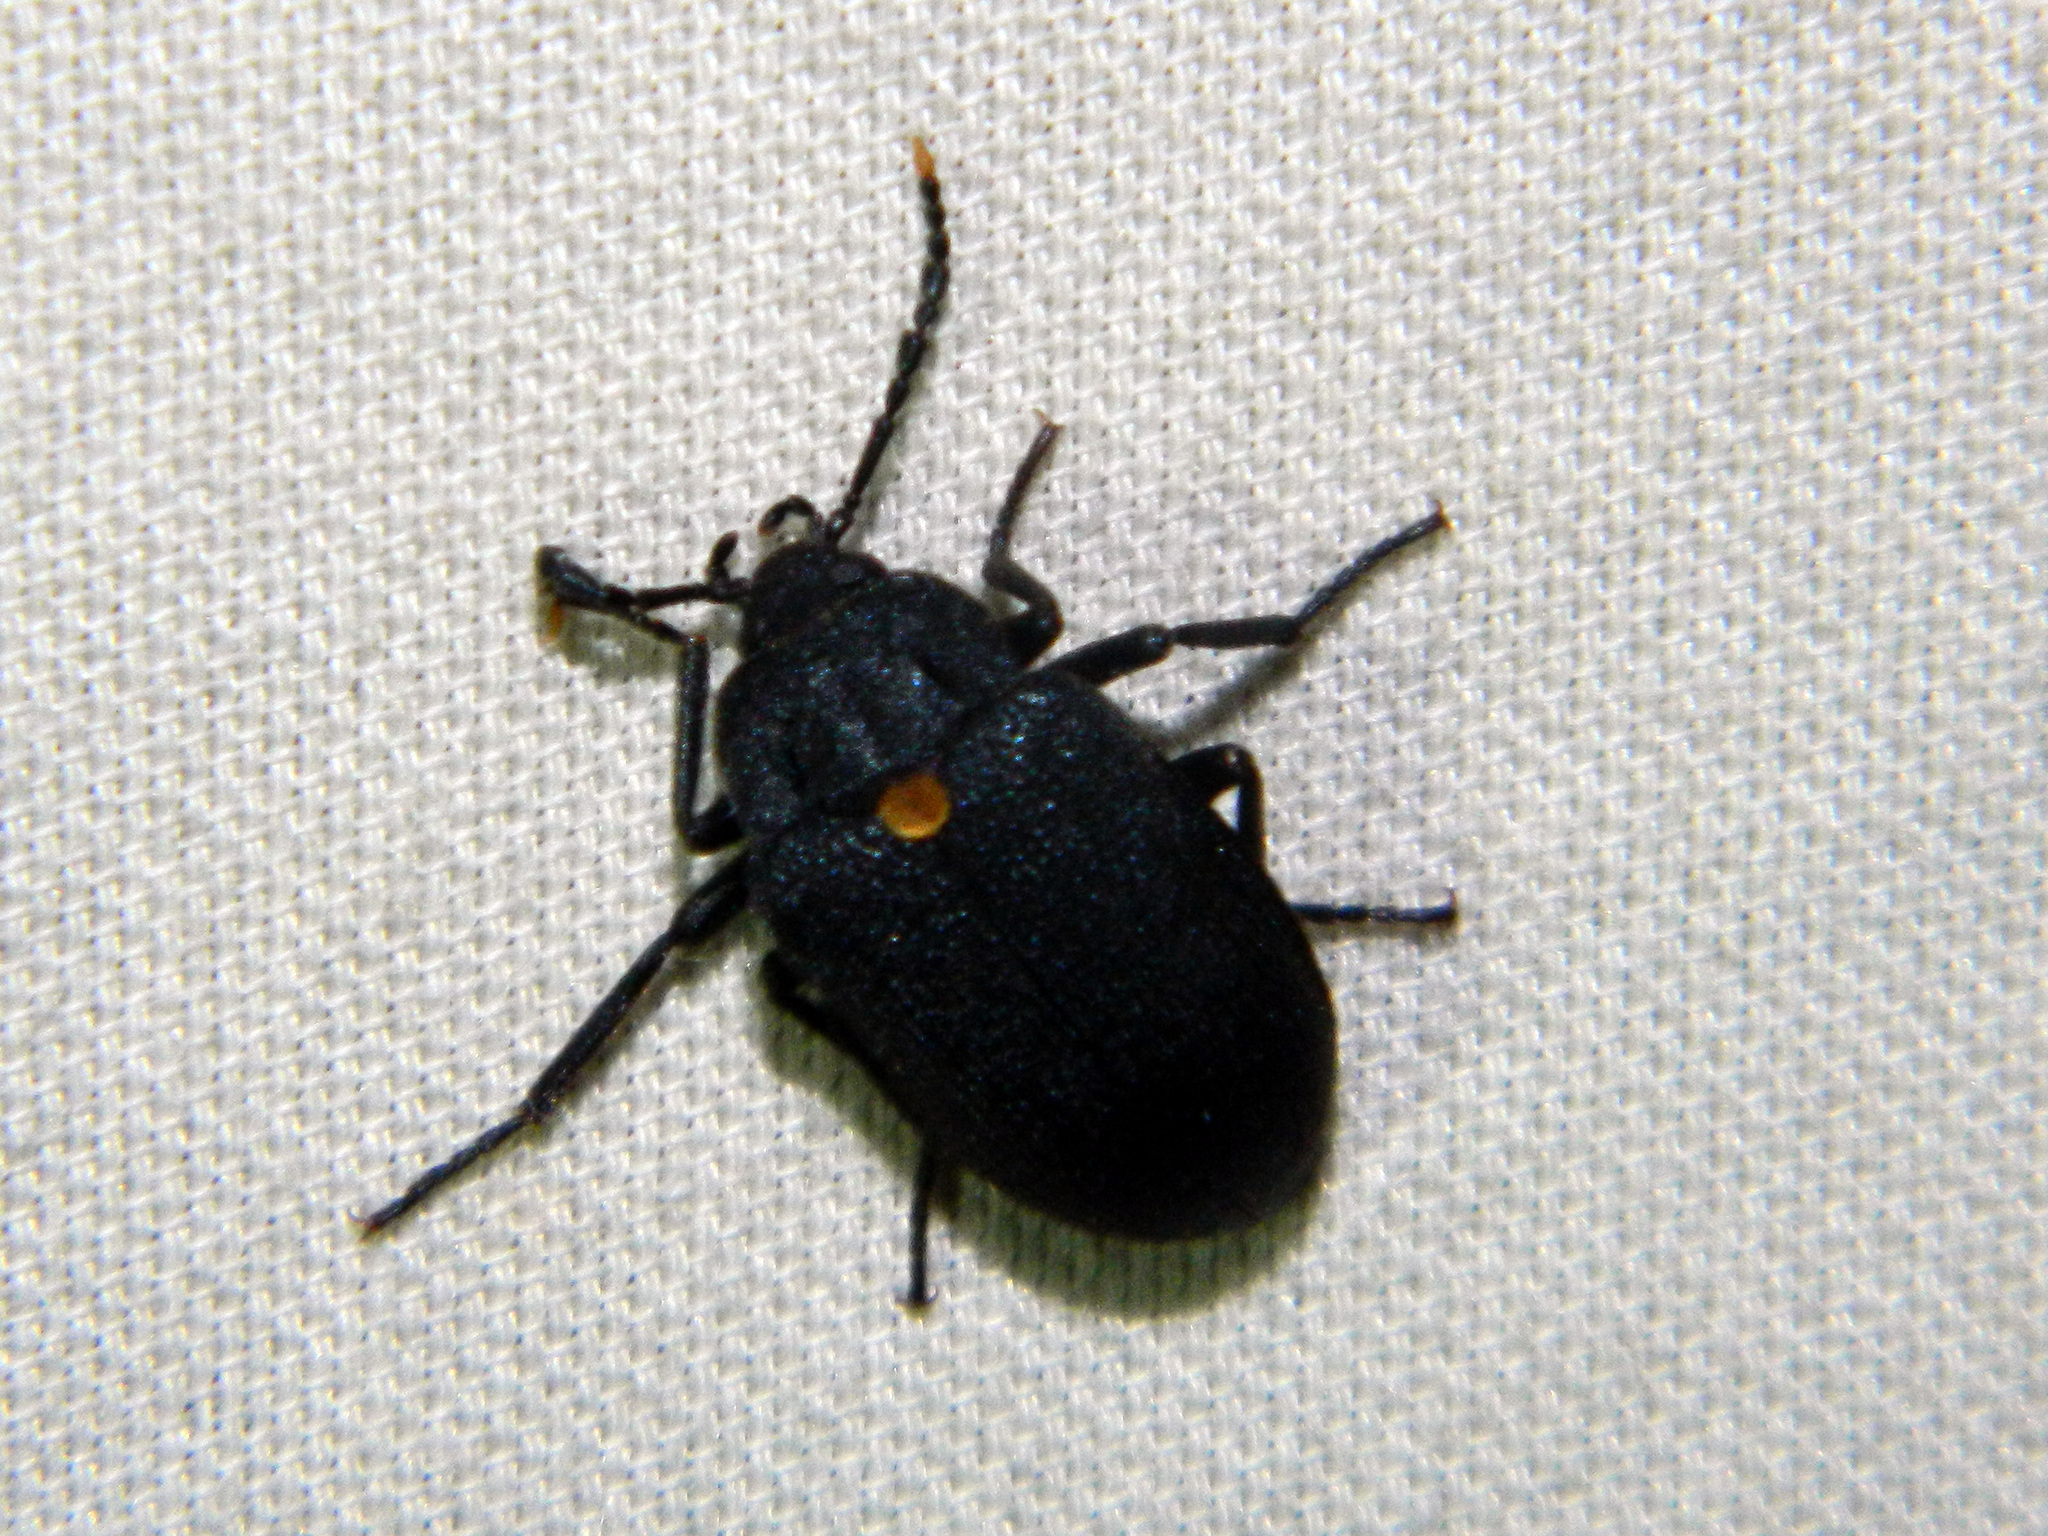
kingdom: Animalia
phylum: Arthropoda
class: Insecta
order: Coleoptera
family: Tetratomidae
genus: Penthe
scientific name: Penthe obliquata
